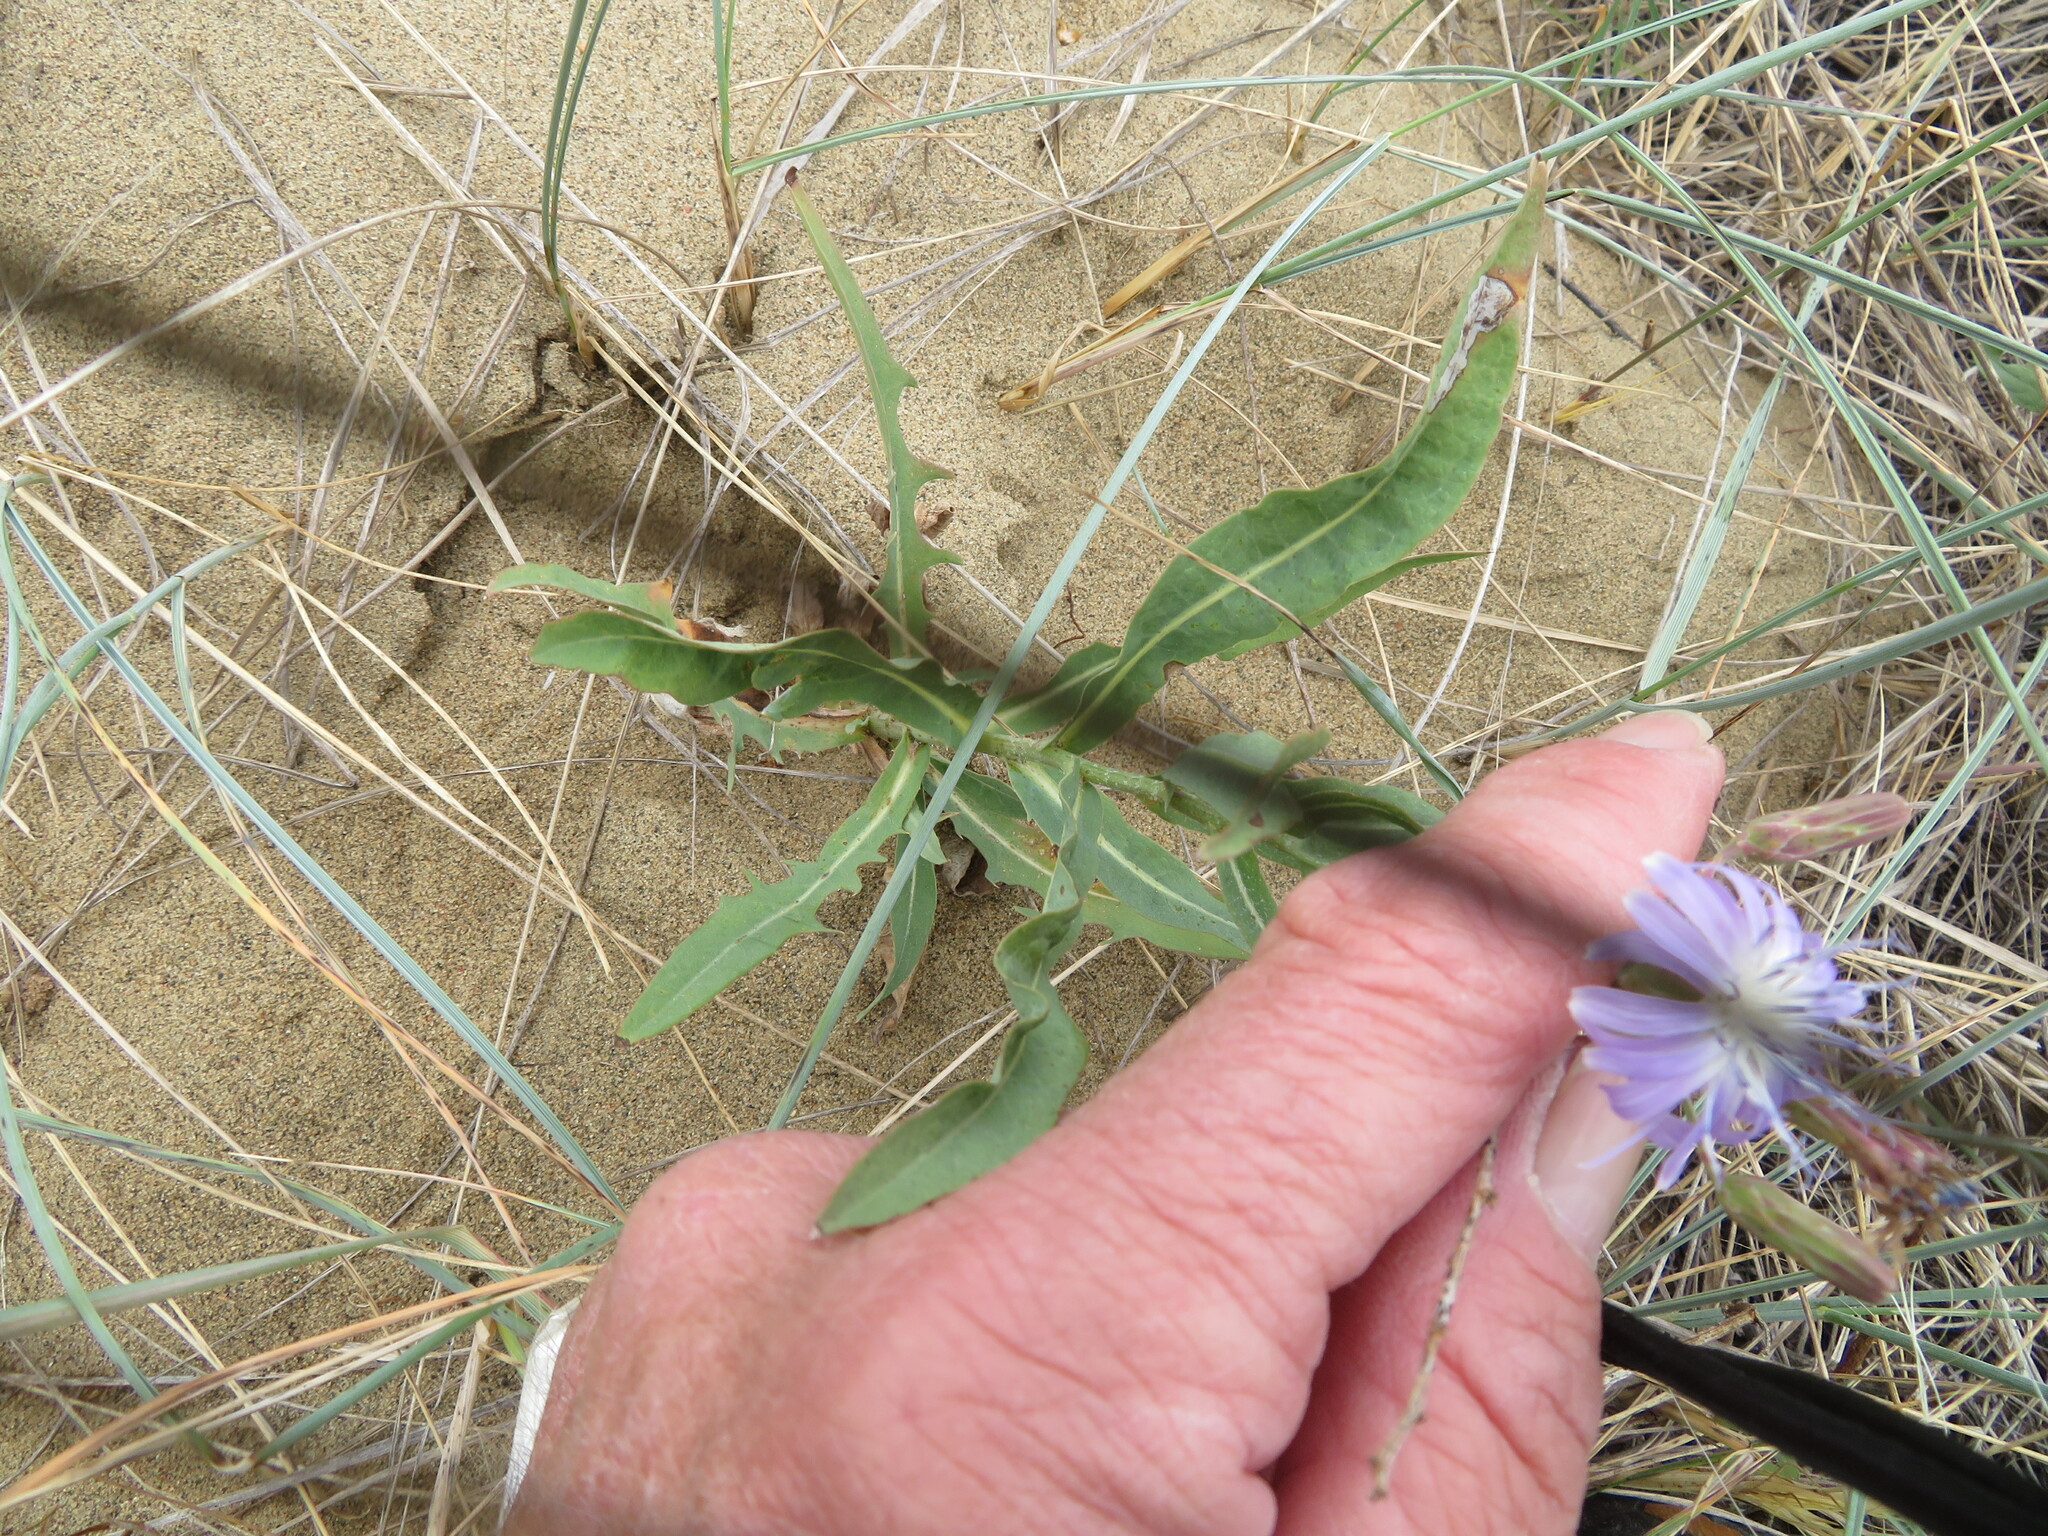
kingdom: Plantae
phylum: Tracheophyta
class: Magnoliopsida
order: Asterales
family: Asteraceae
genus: Lactuca
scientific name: Lactuca pulchella
